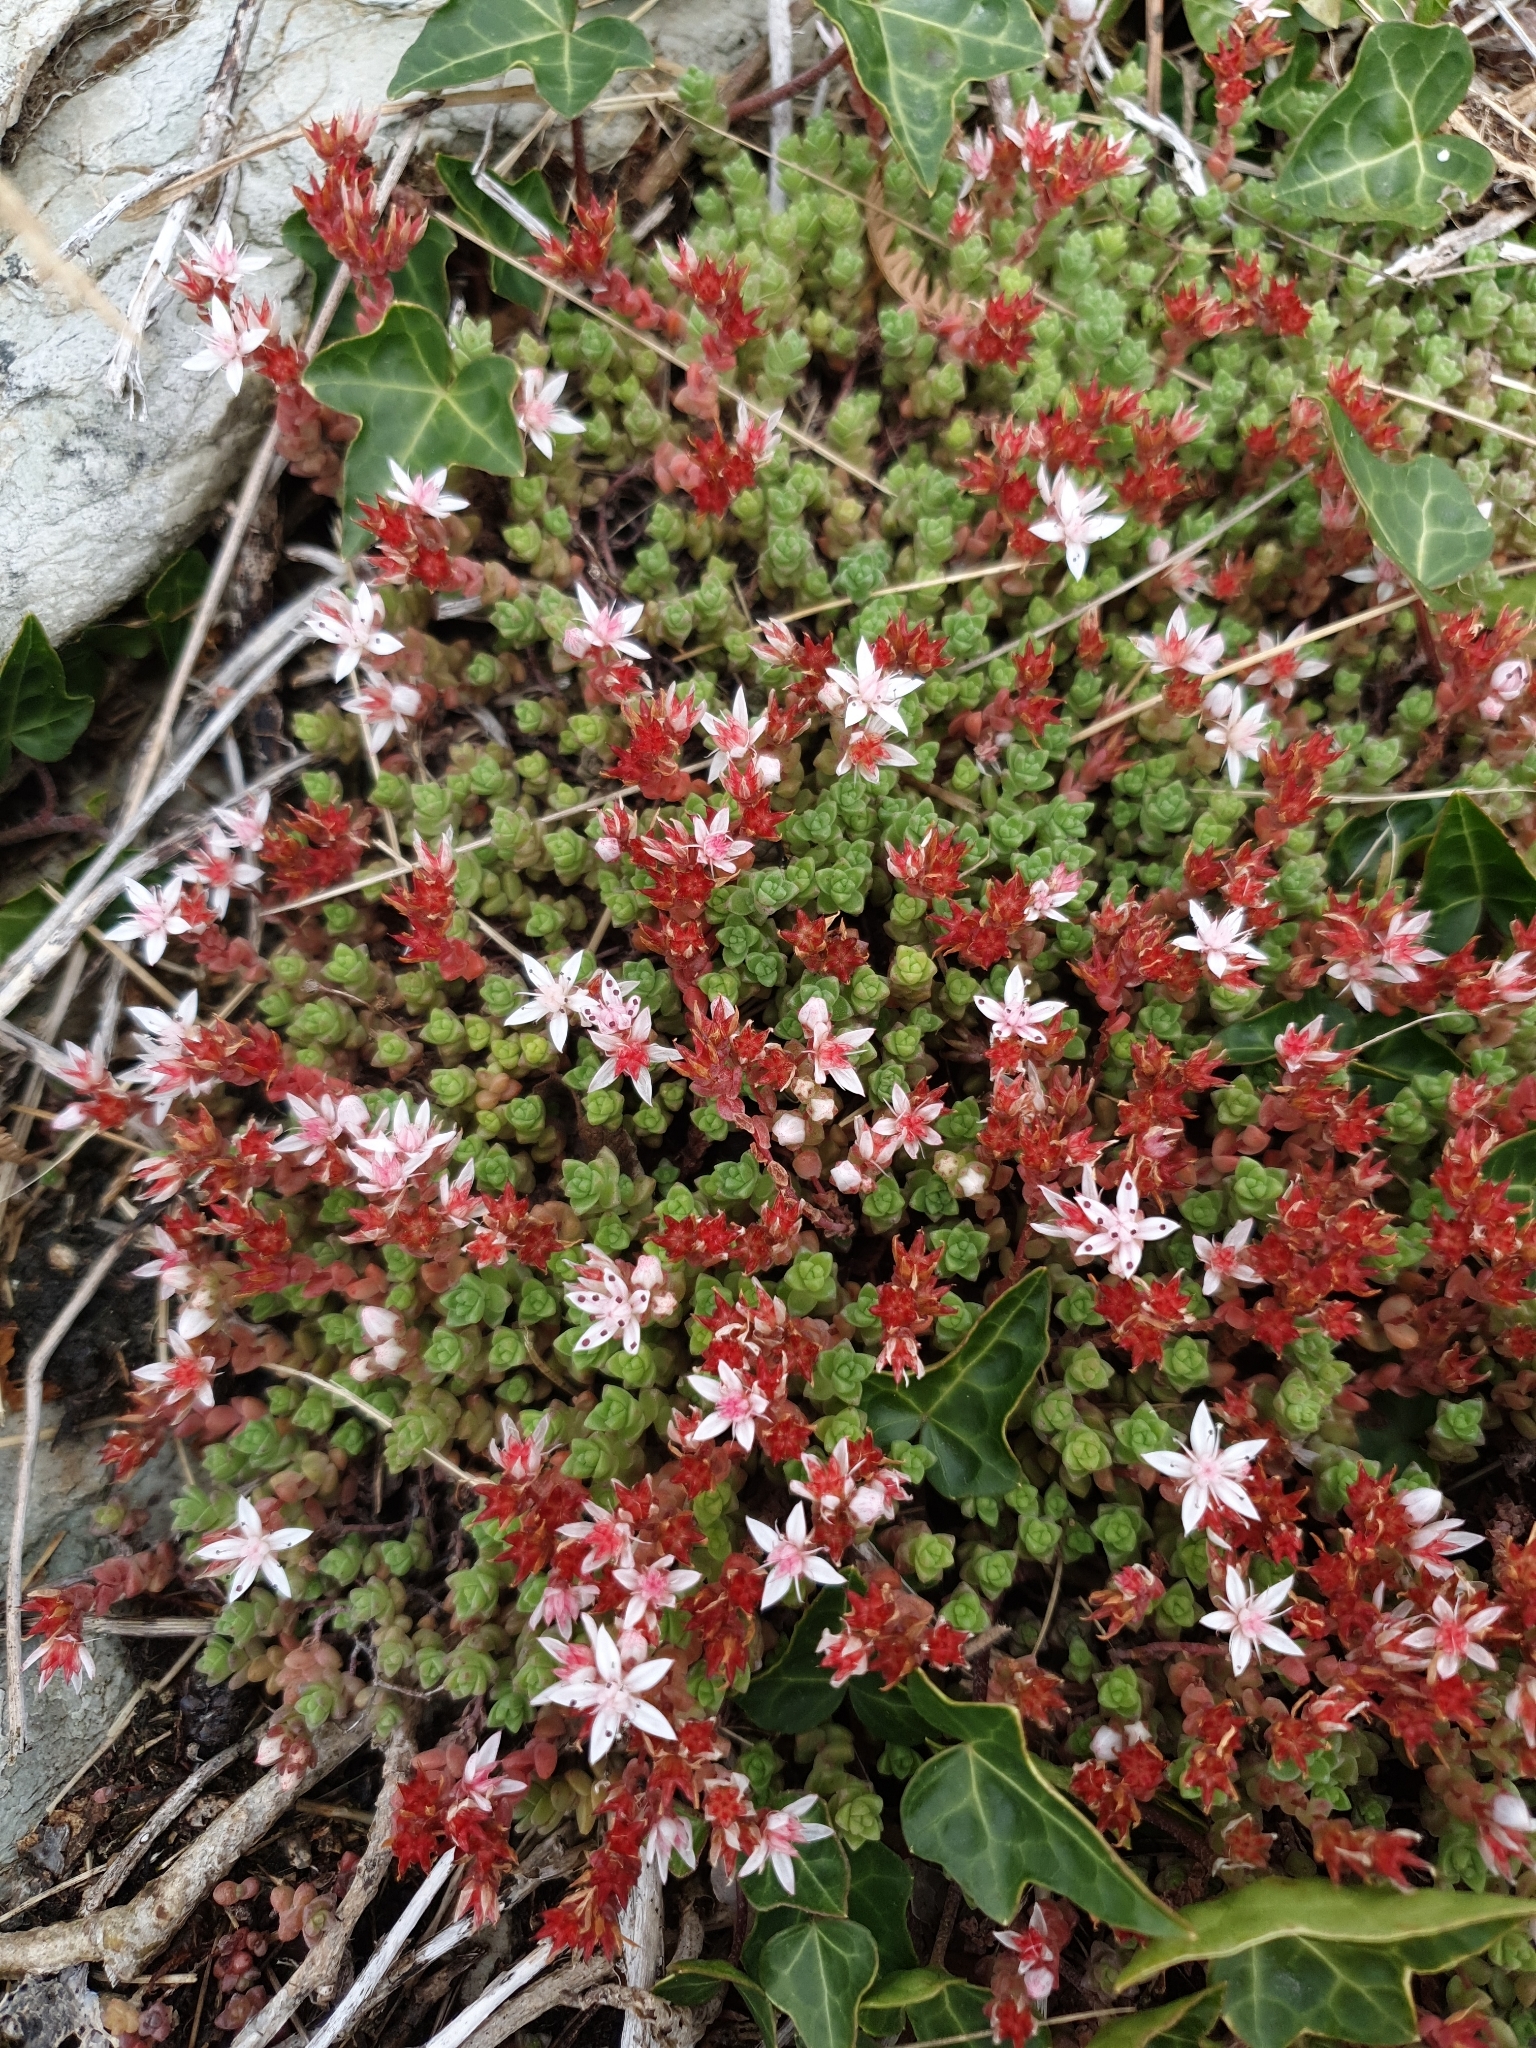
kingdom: Plantae
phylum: Tracheophyta
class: Magnoliopsida
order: Saxifragales
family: Crassulaceae
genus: Sedum
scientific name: Sedum anglicum
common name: English stonecrop
